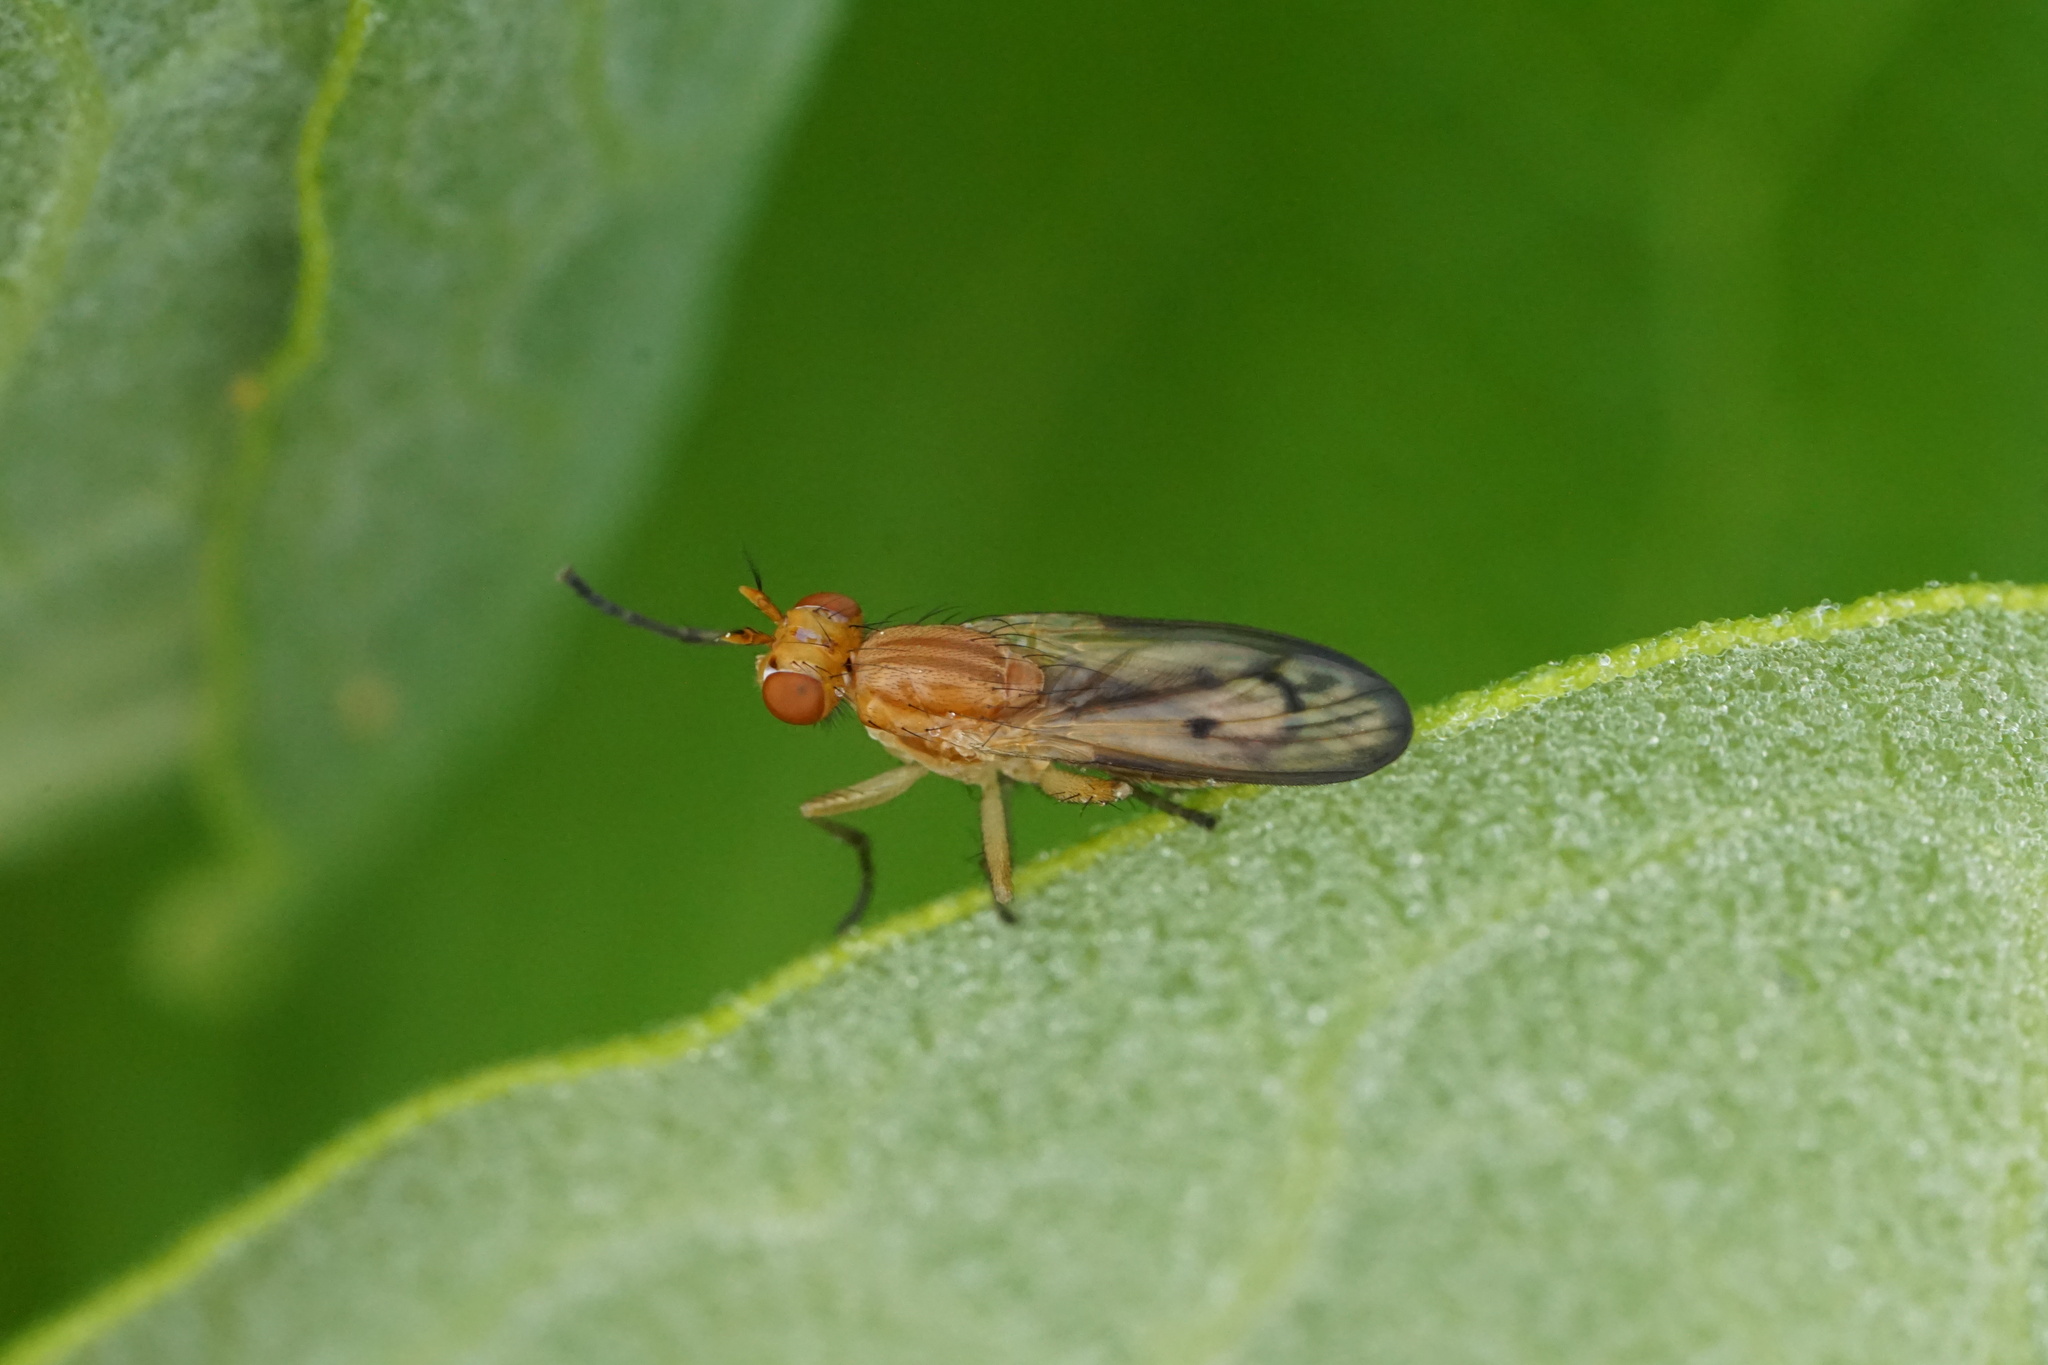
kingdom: Animalia
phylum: Arthropoda
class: Insecta
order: Diptera
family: Sciomyzidae
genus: Tetanocera
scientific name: Tetanocera plebeja
